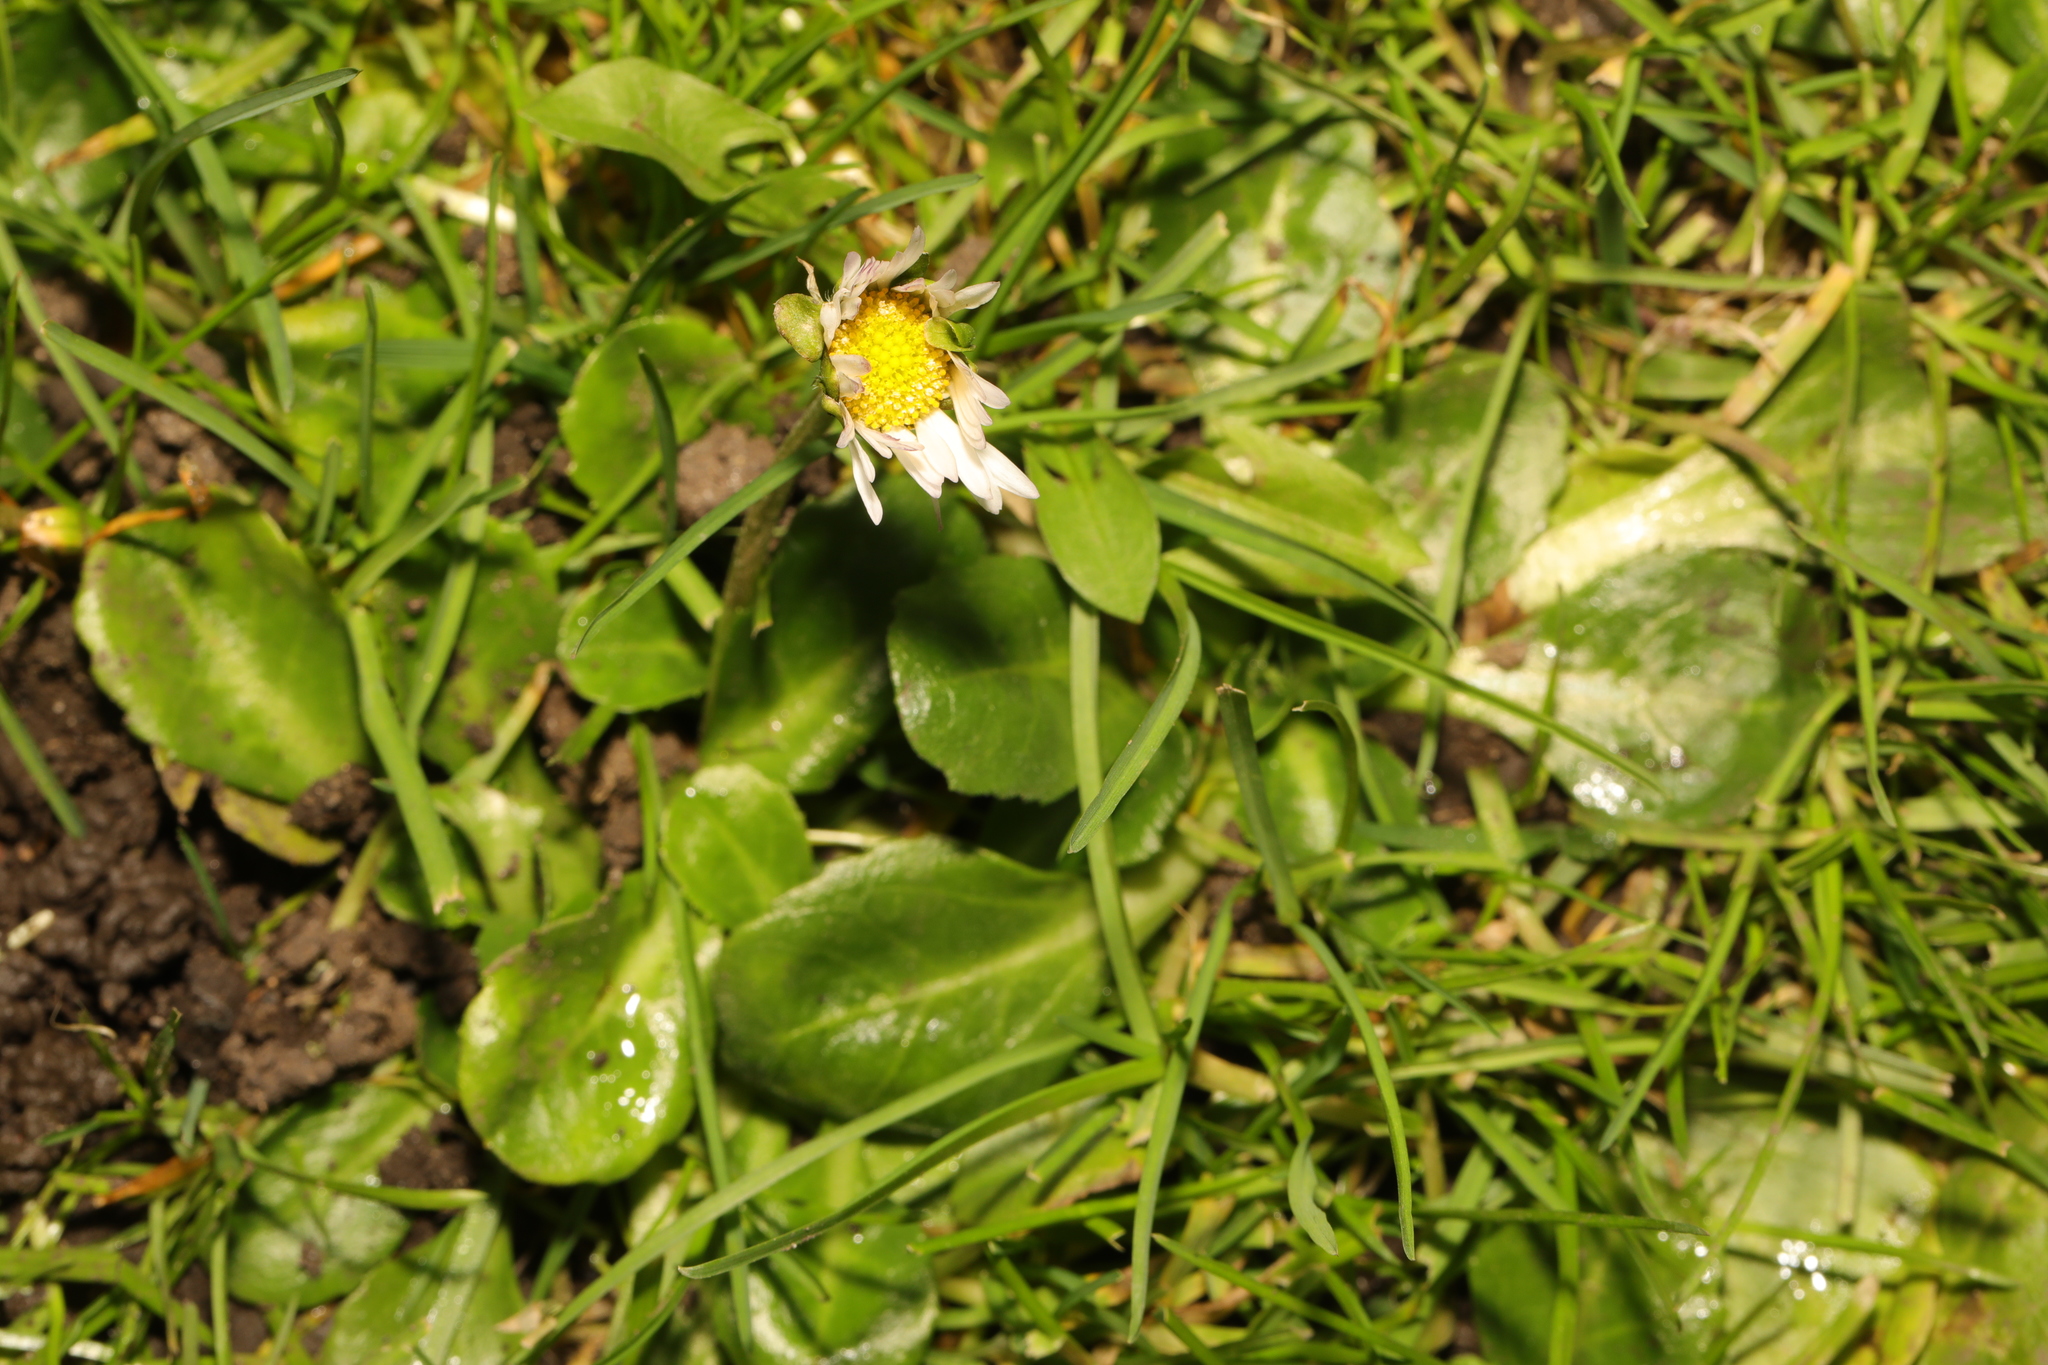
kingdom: Plantae
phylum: Tracheophyta
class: Magnoliopsida
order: Asterales
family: Asteraceae
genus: Bellis
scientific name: Bellis perennis
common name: Lawndaisy
